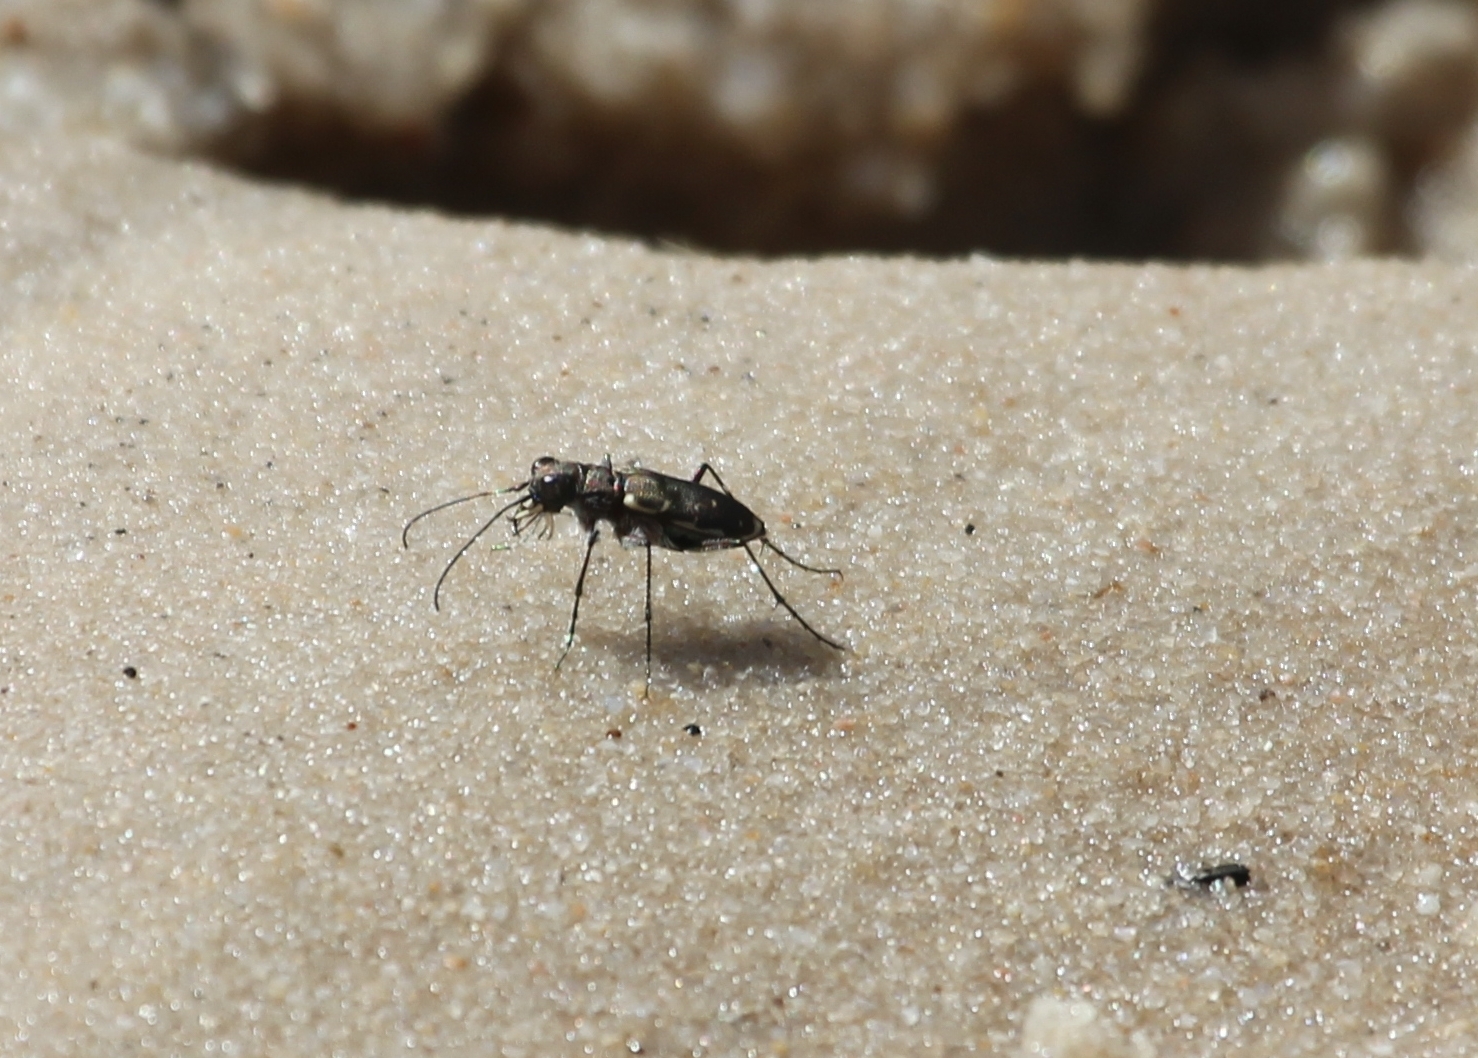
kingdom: Animalia
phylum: Arthropoda
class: Insecta
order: Coleoptera
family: Carabidae
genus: Cicindela
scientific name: Cicindela repanda
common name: Bronzed tiger beetle
